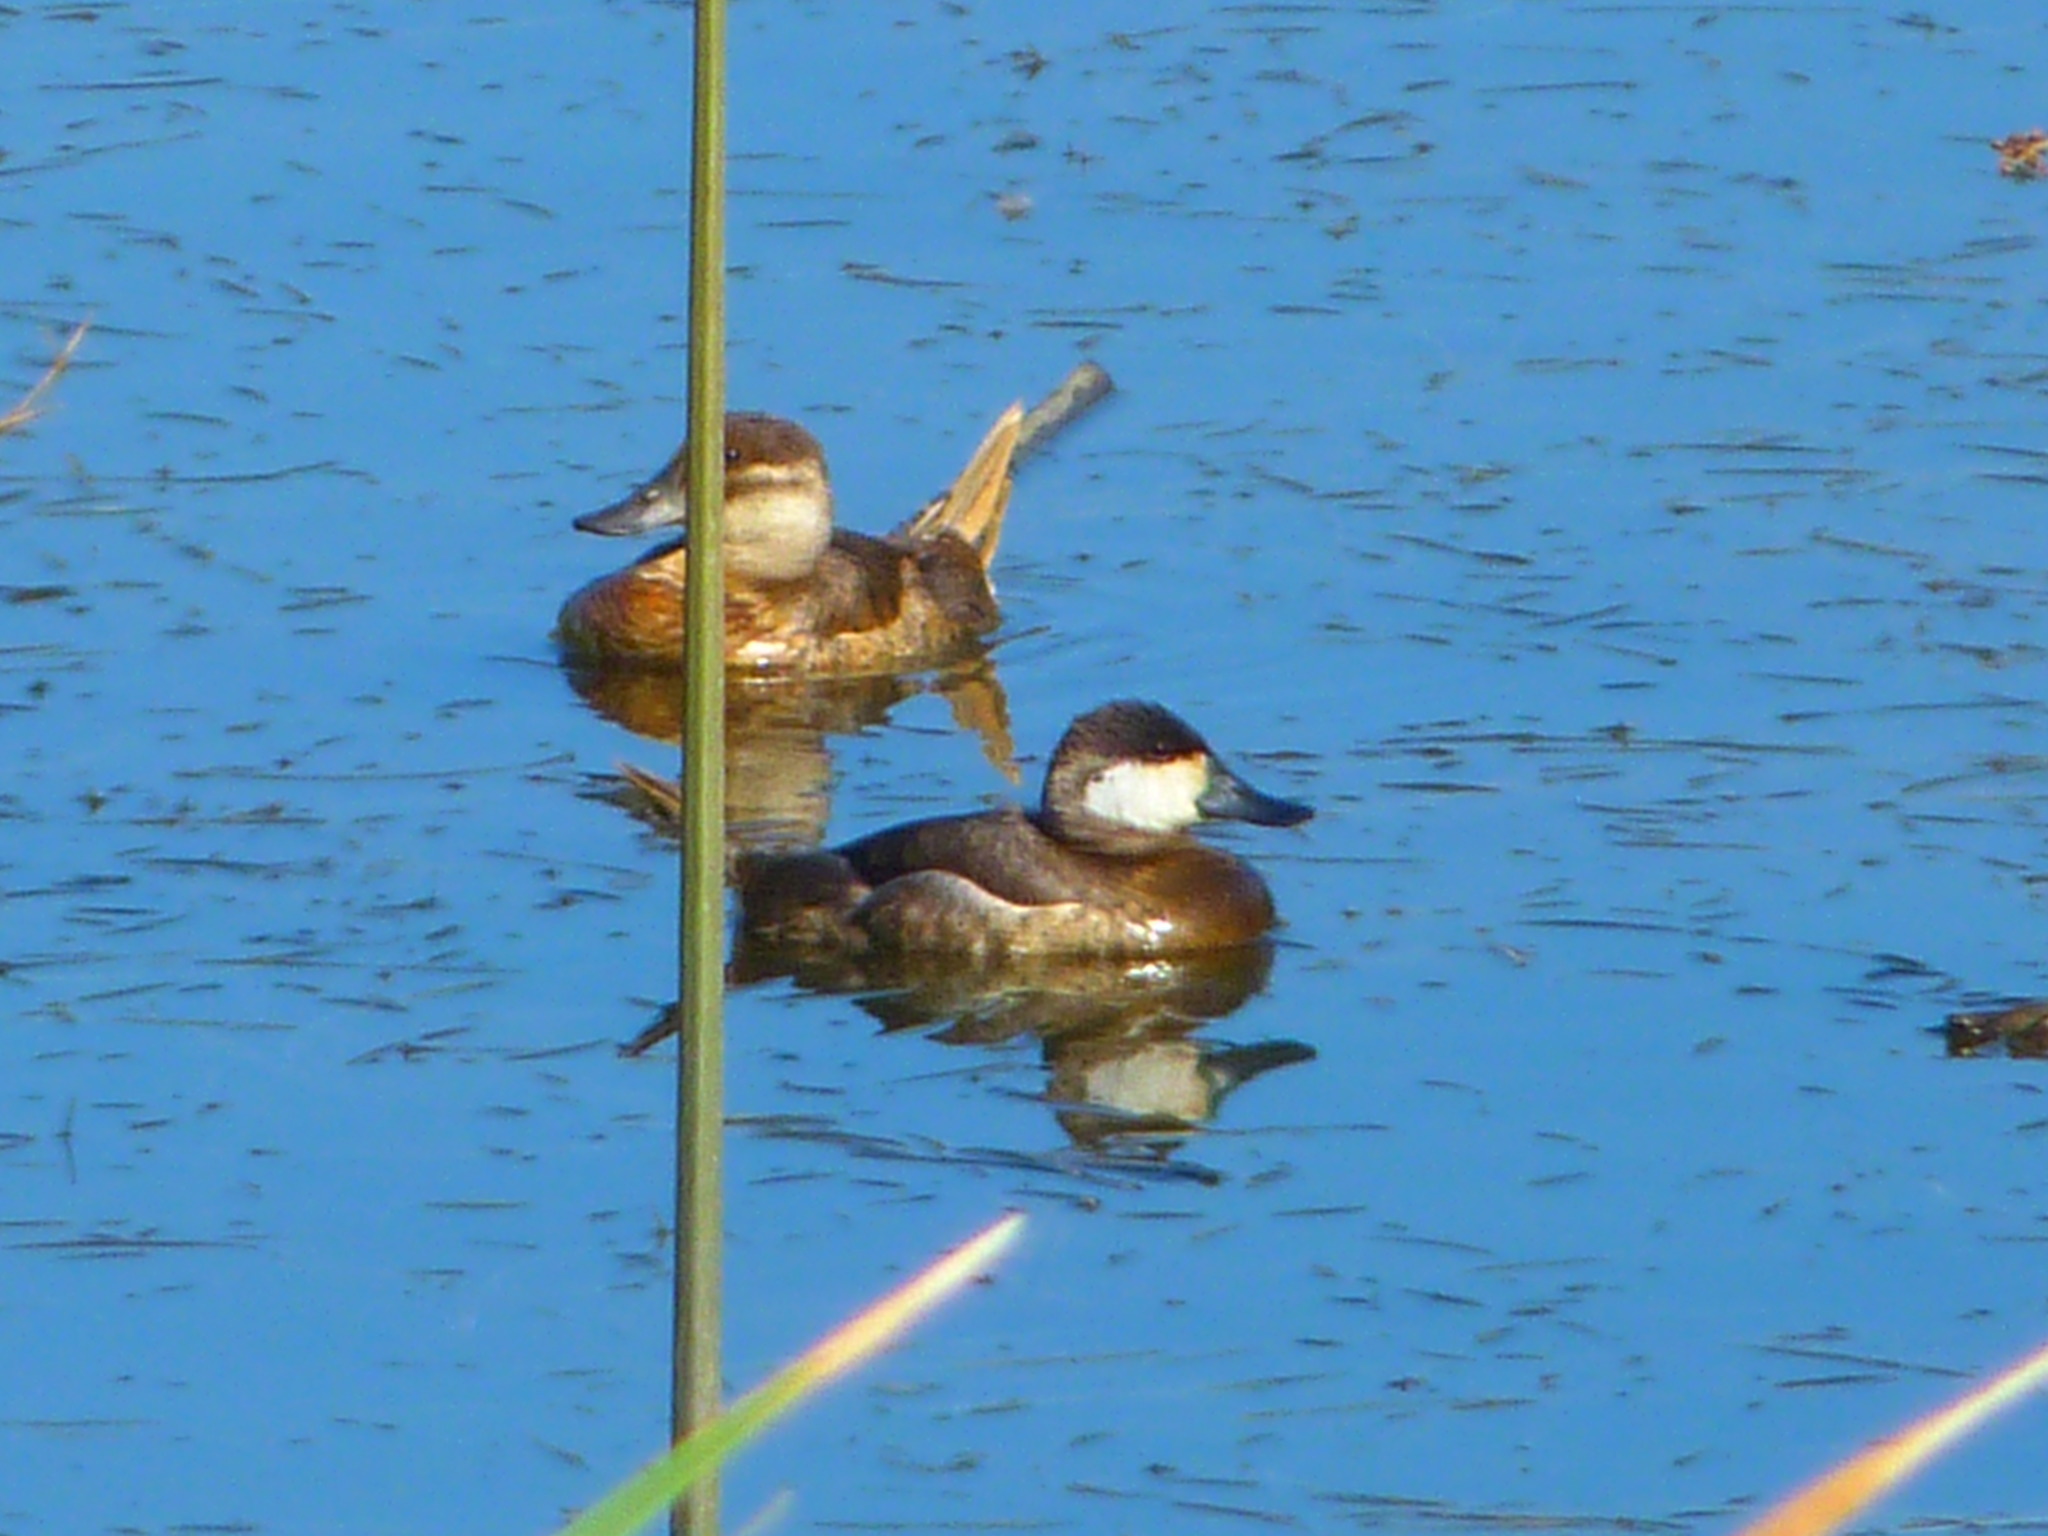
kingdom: Animalia
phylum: Chordata
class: Aves
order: Anseriformes
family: Anatidae
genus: Oxyura
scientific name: Oxyura jamaicensis
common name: Ruddy duck
